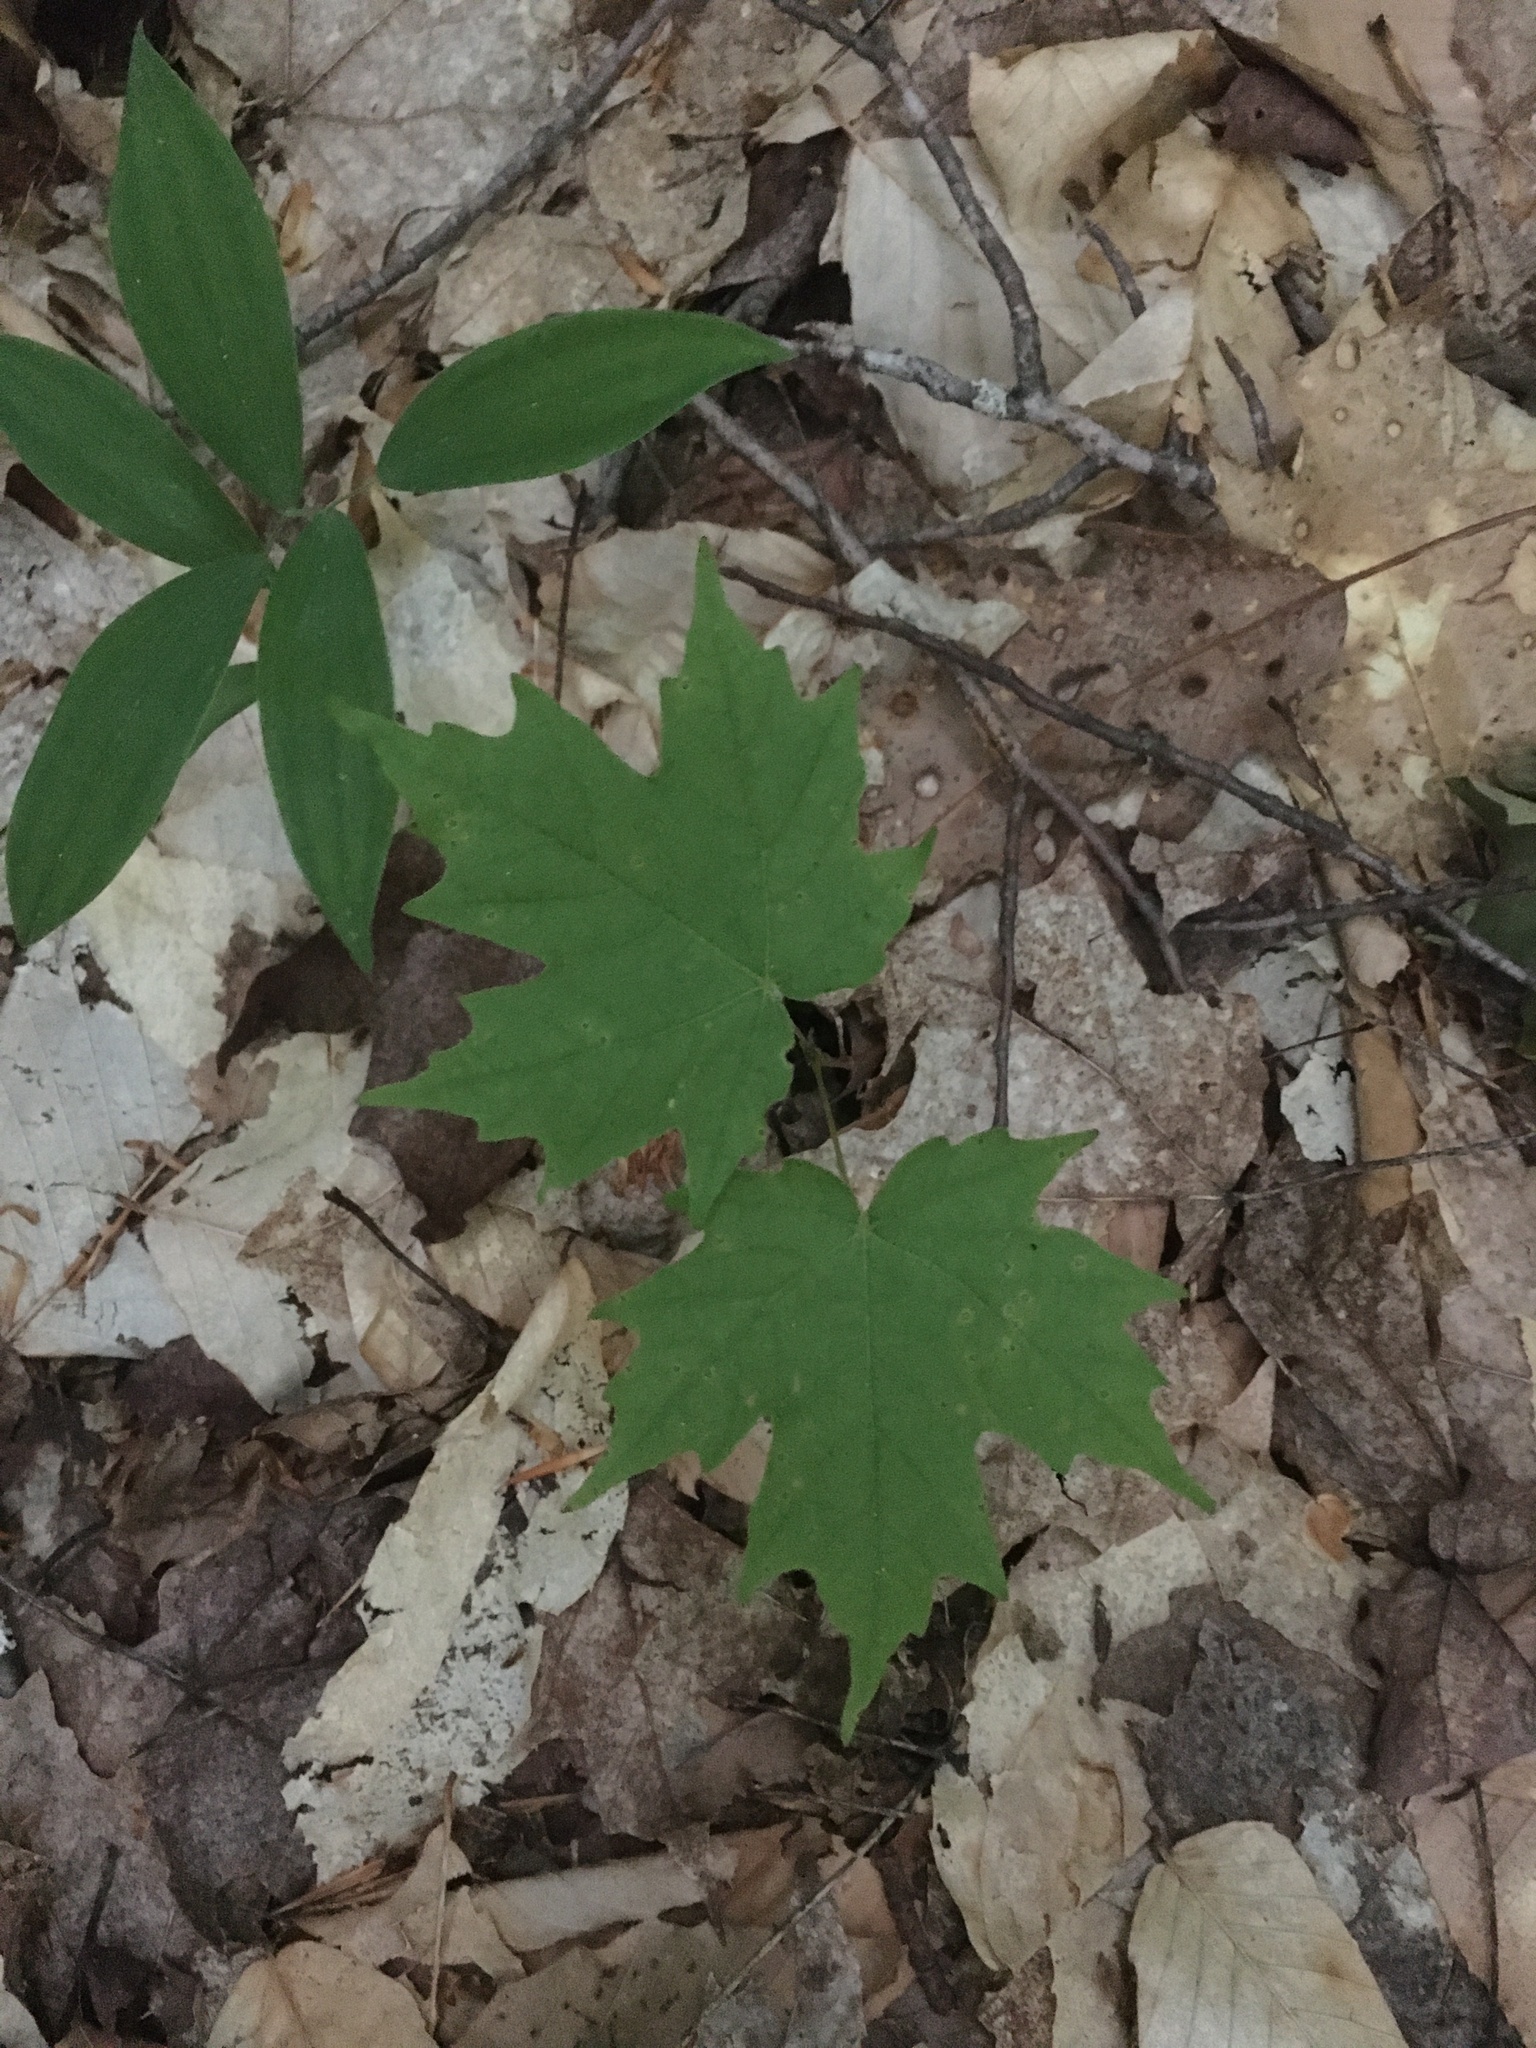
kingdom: Plantae
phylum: Tracheophyta
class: Magnoliopsida
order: Sapindales
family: Sapindaceae
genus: Acer
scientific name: Acer saccharum
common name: Sugar maple
